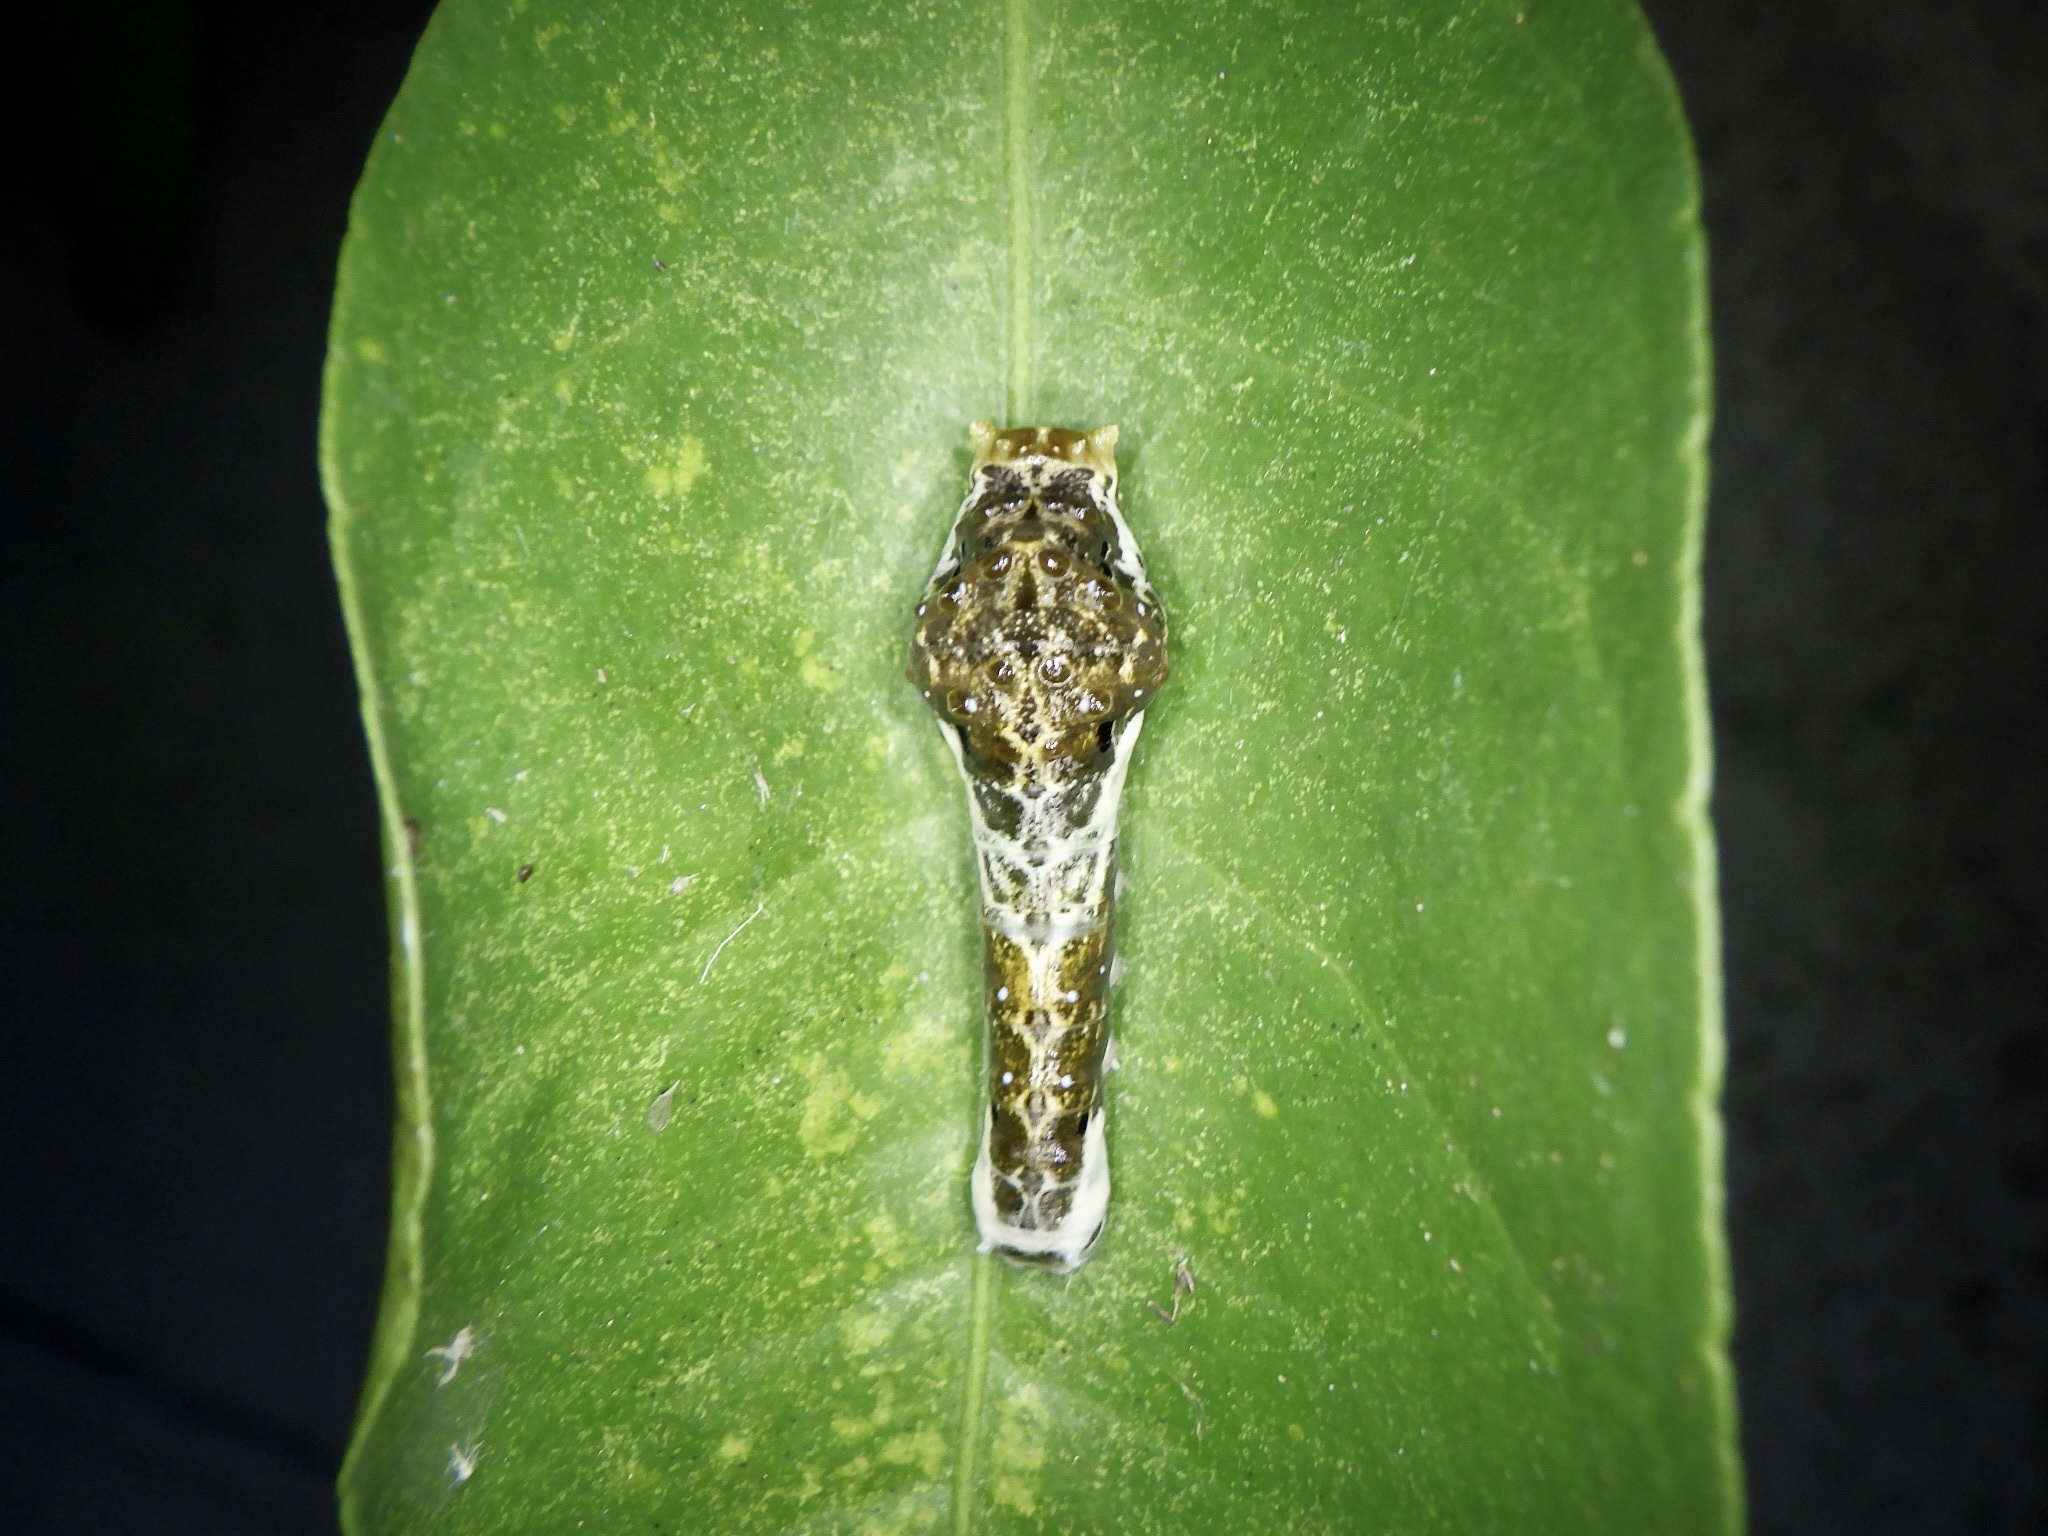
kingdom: Animalia
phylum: Arthropoda
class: Insecta
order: Lepidoptera
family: Papilionidae
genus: Papilio
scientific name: Papilio xuthus
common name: Asian swallowtail
